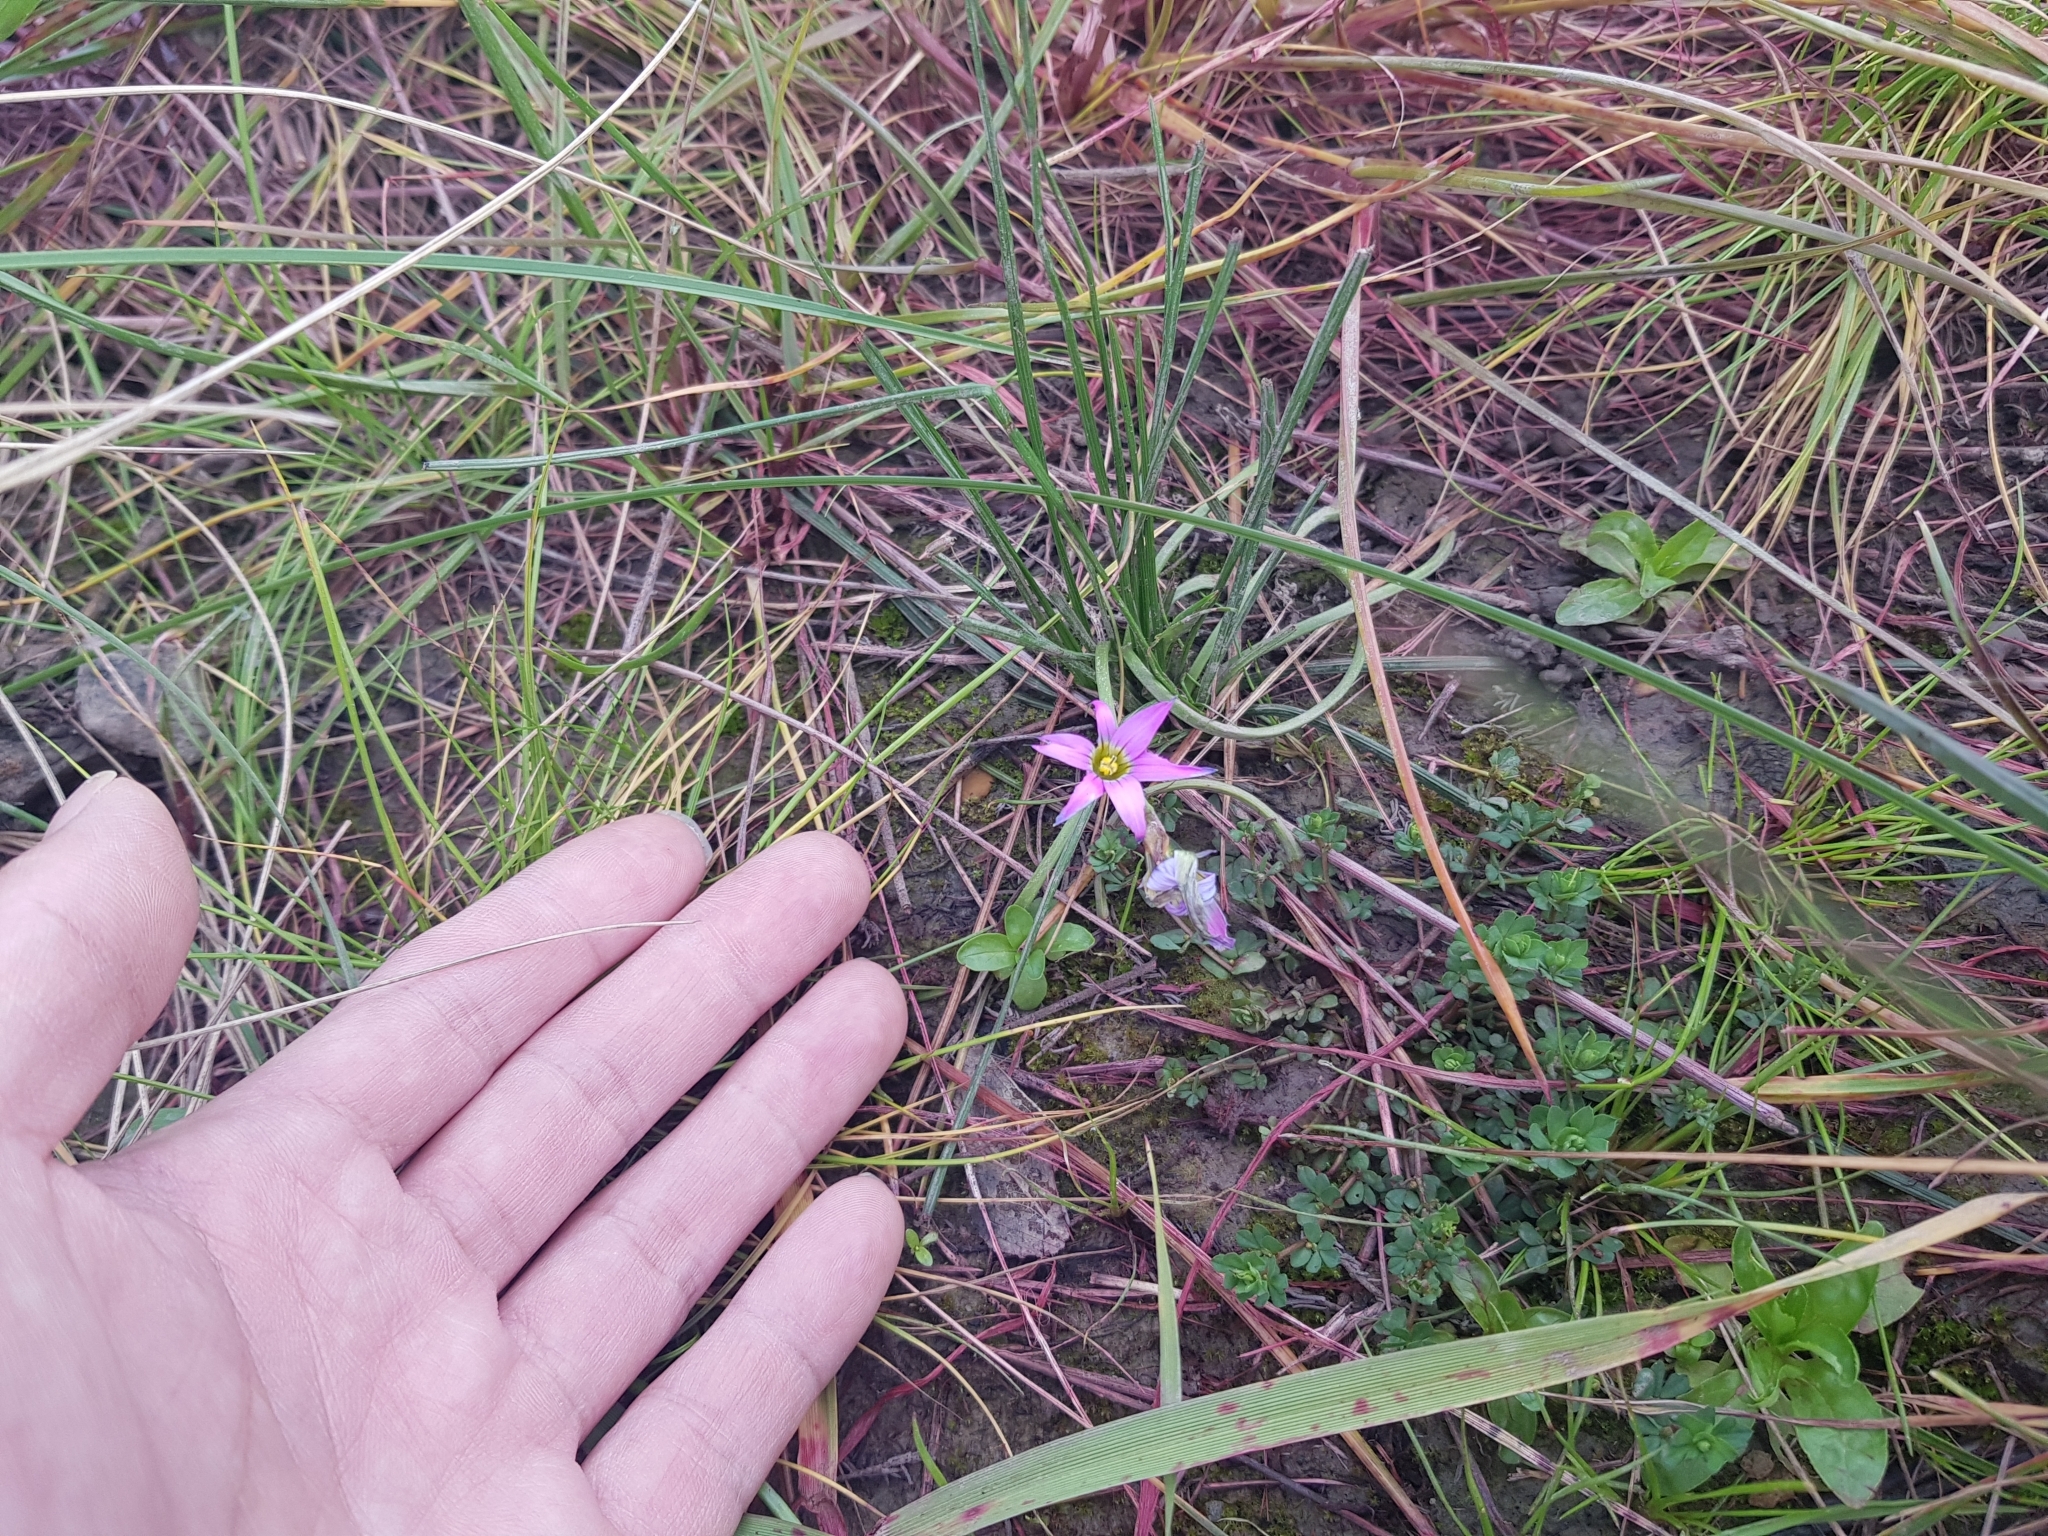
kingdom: Plantae
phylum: Tracheophyta
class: Liliopsida
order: Asparagales
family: Iridaceae
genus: Romulea
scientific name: Romulea rosea
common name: Oniongrass
